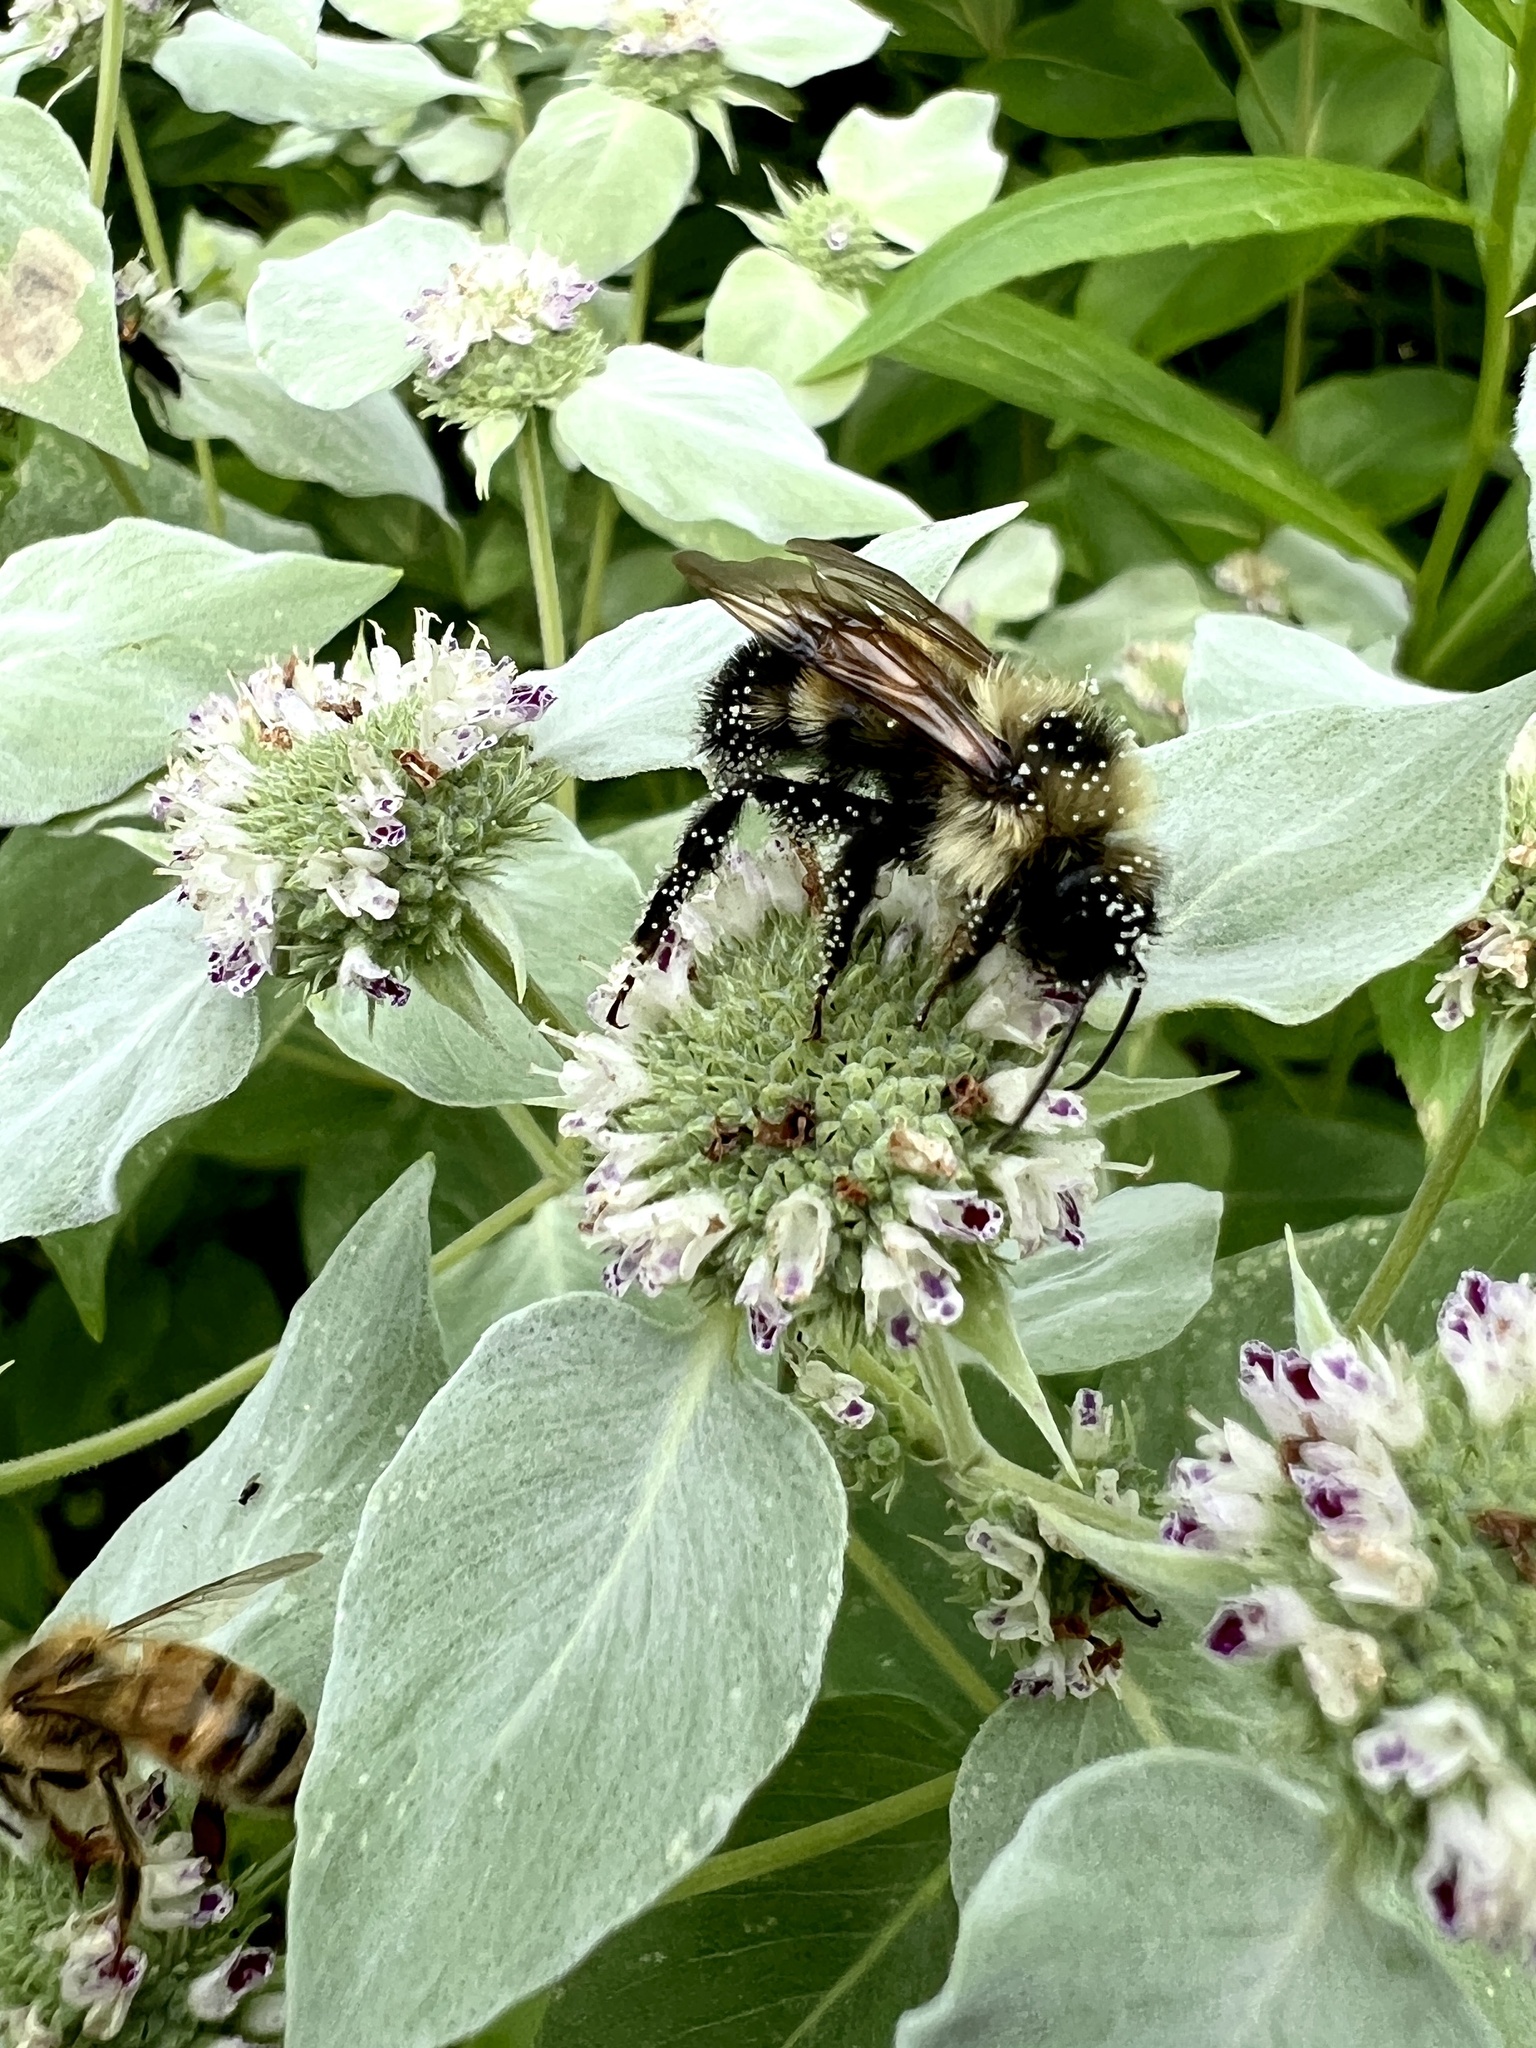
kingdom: Animalia
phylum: Arthropoda
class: Insecta
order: Hymenoptera
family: Apidae
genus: Bombus
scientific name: Bombus citrinus
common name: Lemon cuckoo bumble bee
